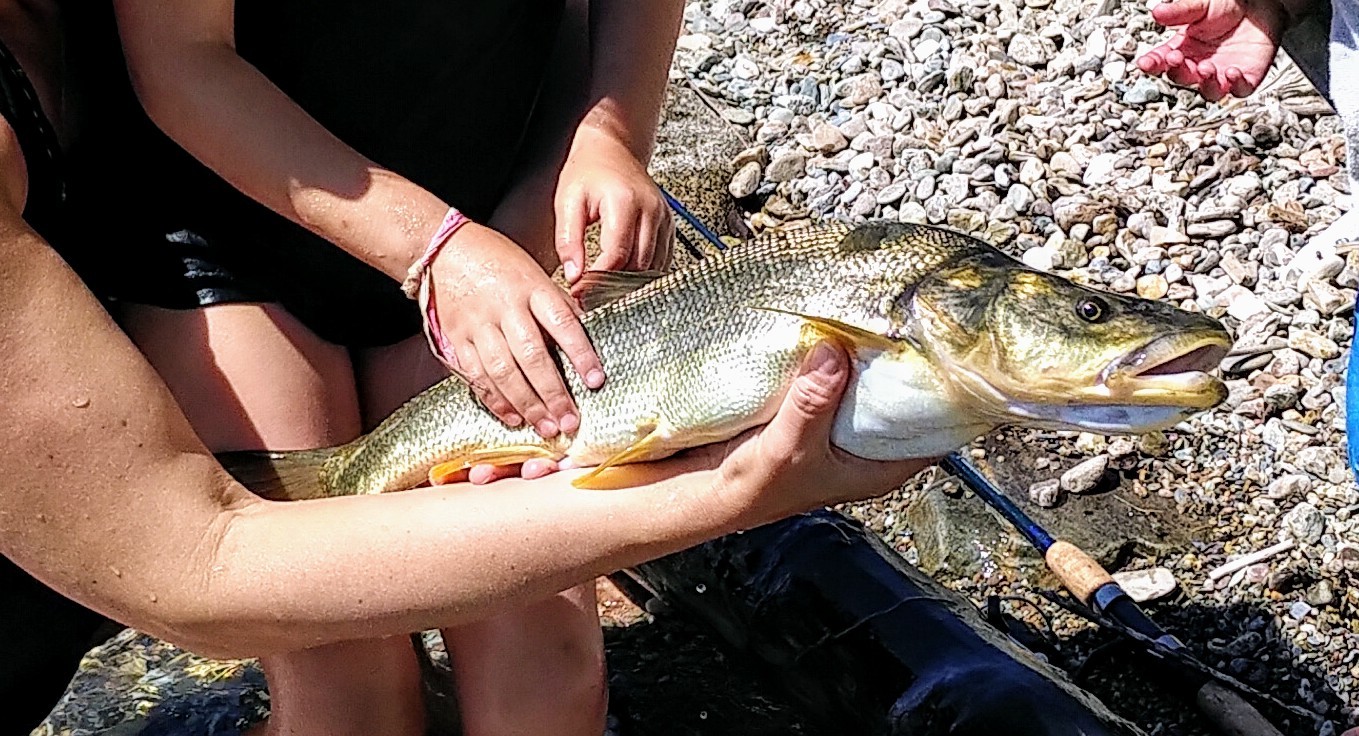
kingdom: Animalia
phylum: Chordata
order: Cypriniformes
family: Cyprinidae
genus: Ptychocheilus
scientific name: Ptychocheilus oregonensis
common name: Northern pikeminnow
